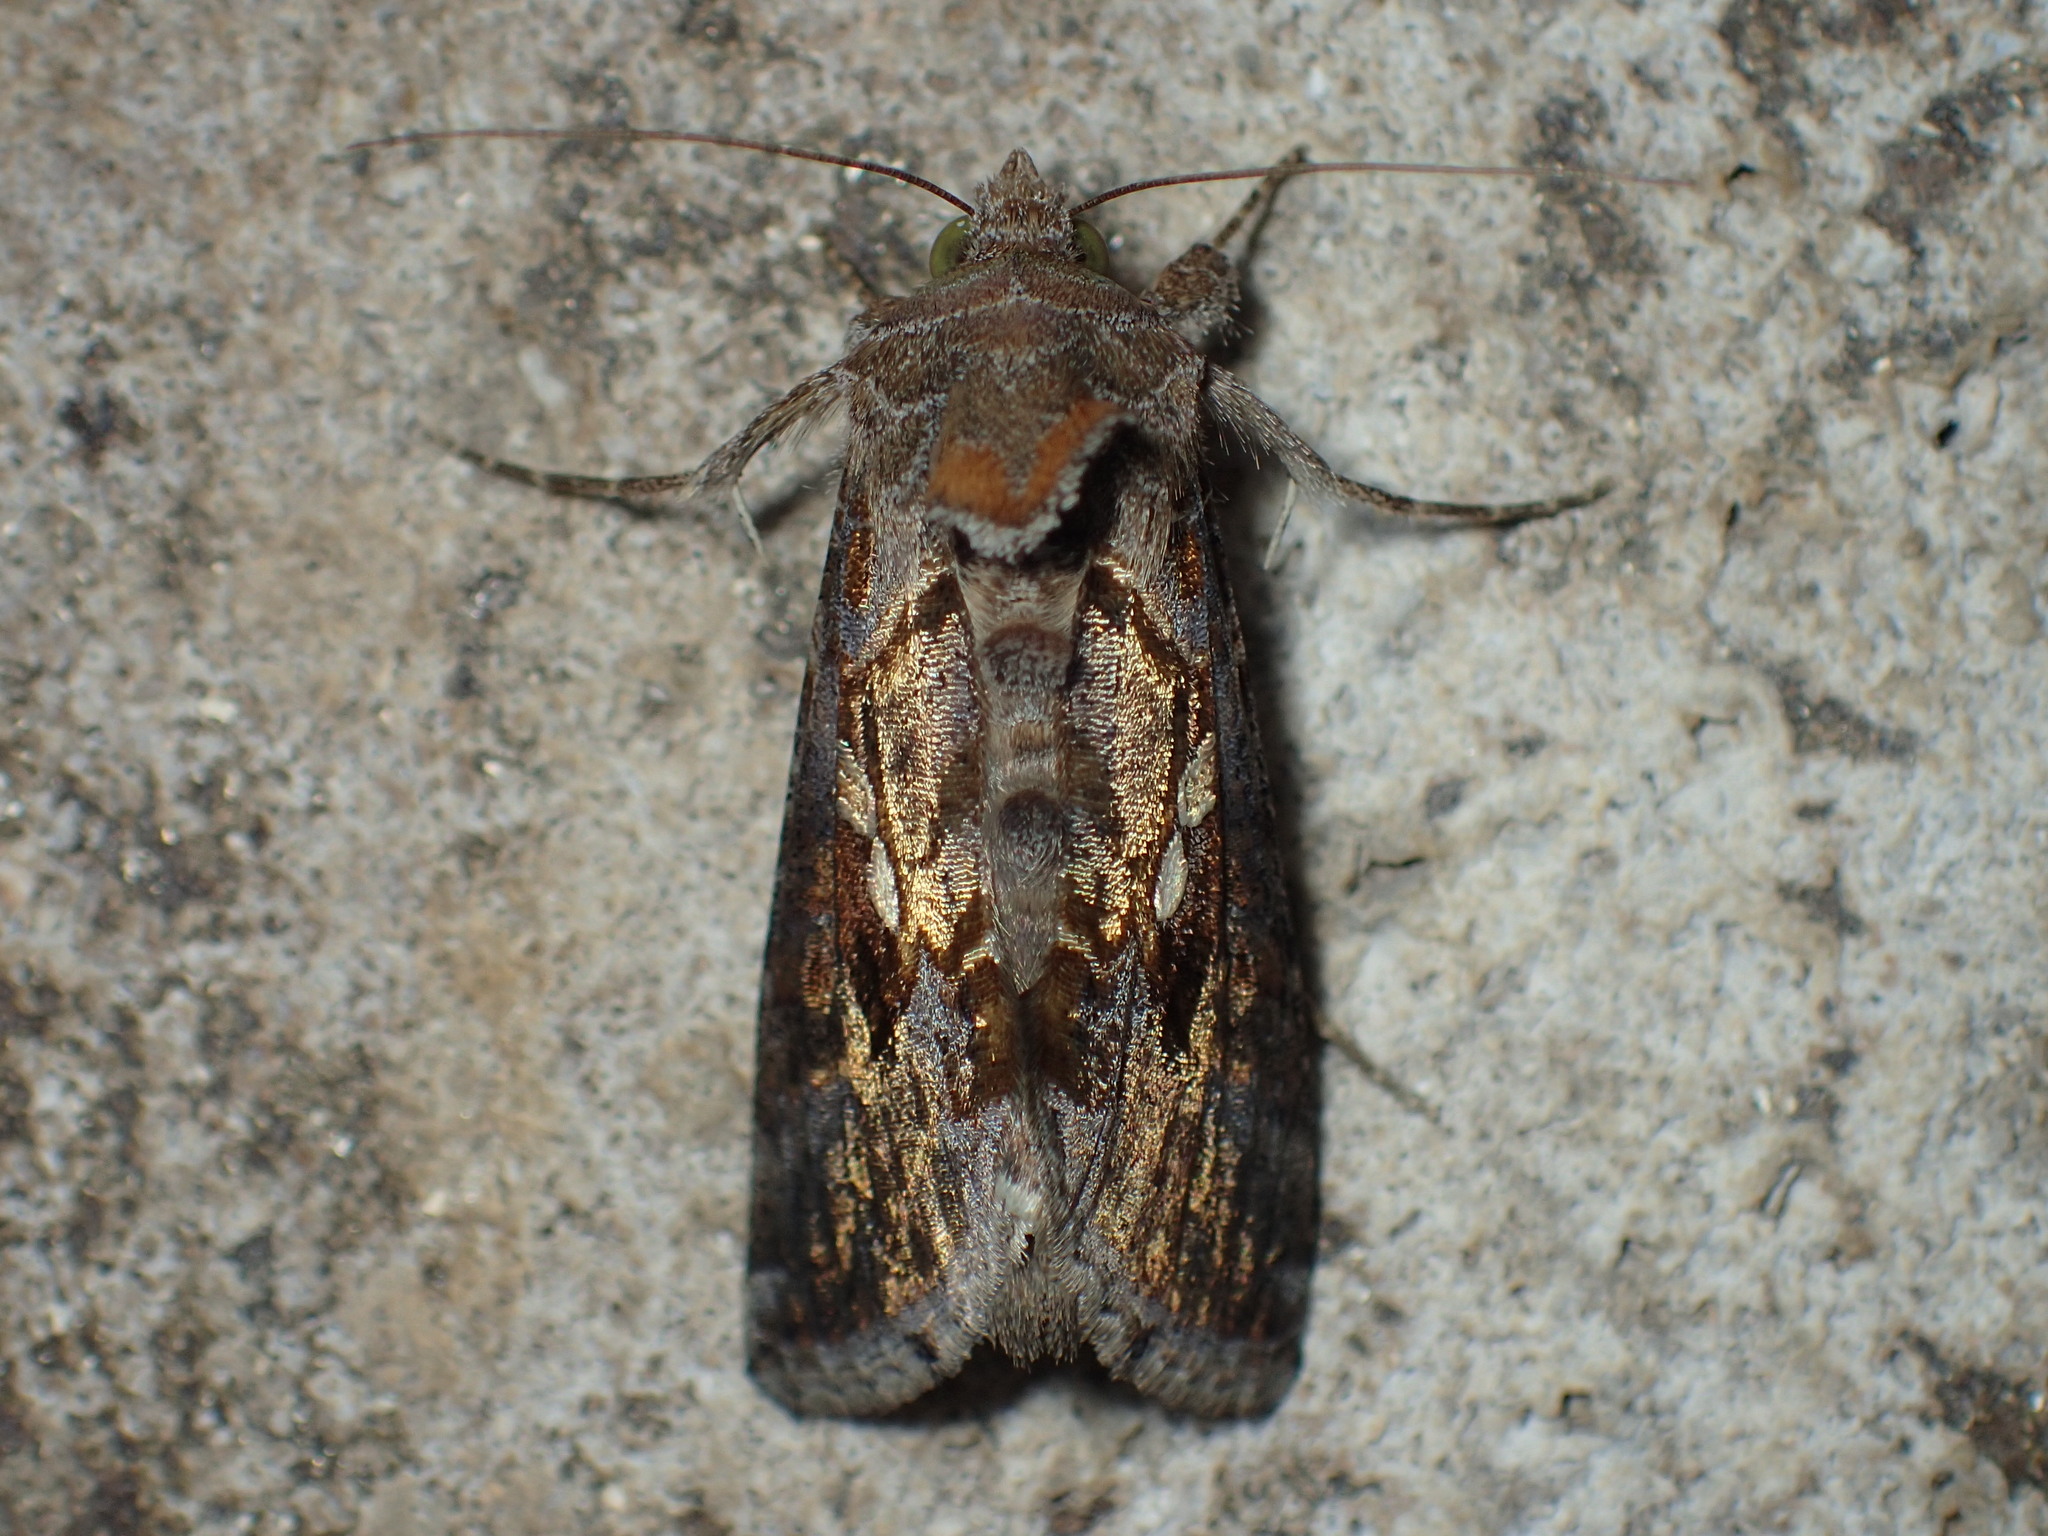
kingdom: Animalia
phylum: Arthropoda
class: Insecta
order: Lepidoptera
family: Noctuidae
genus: Chrysodeixis
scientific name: Chrysodeixis includens
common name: Cutworm moth
